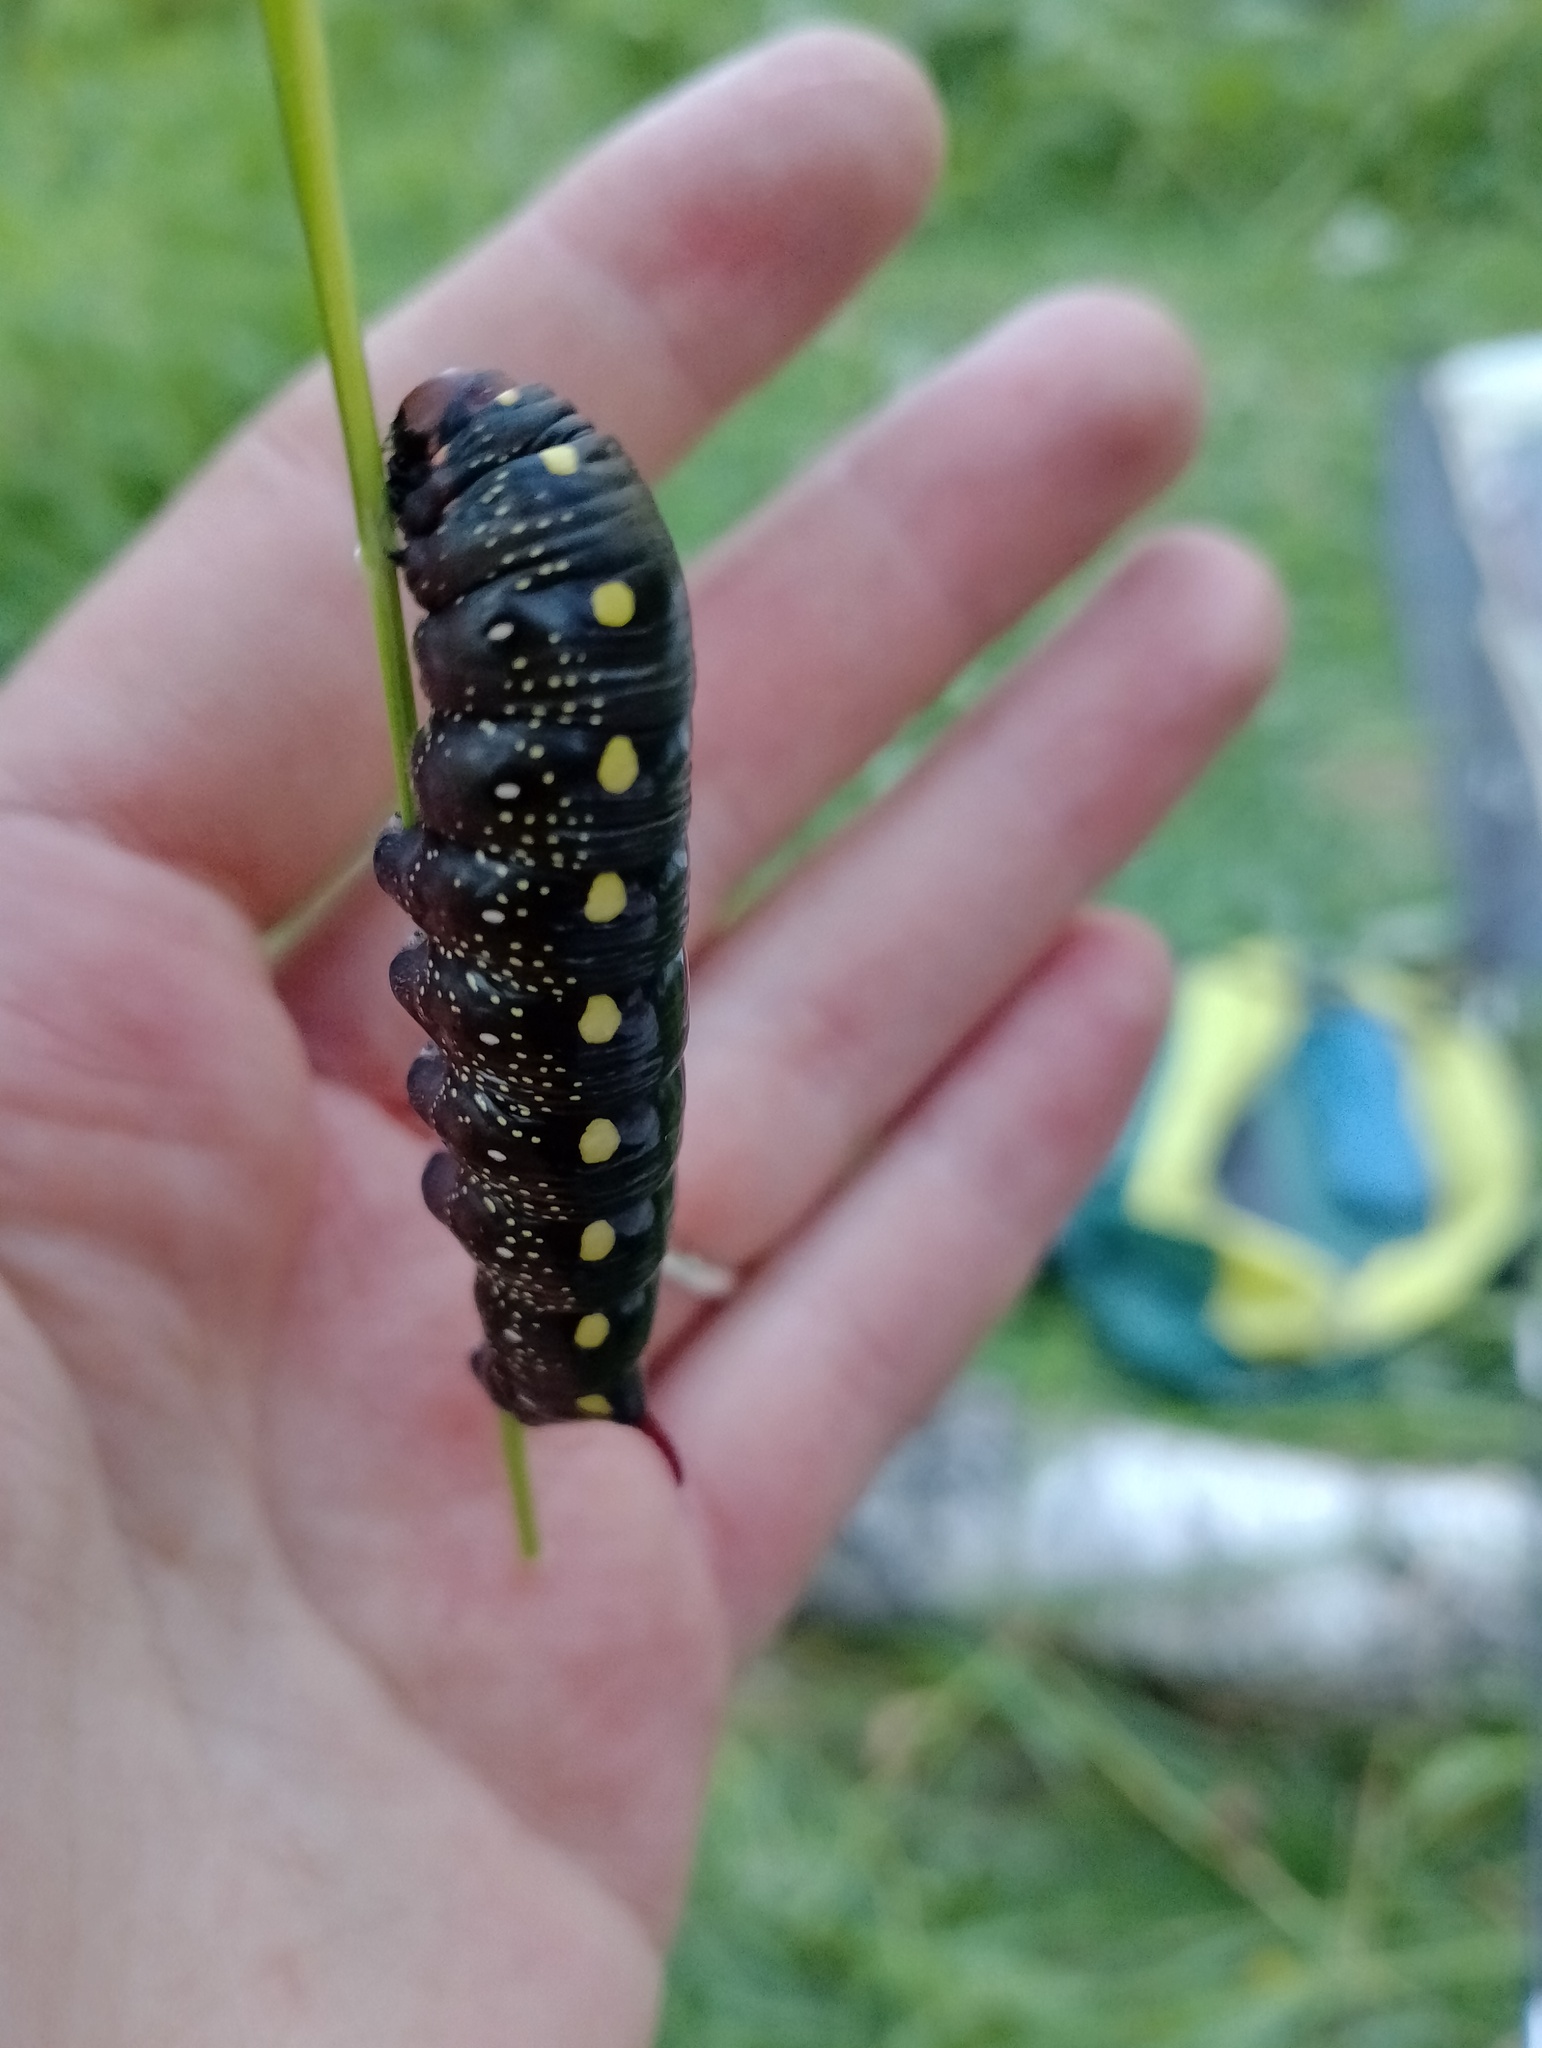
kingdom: Animalia
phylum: Arthropoda
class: Insecta
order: Lepidoptera
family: Sphingidae
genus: Hyles
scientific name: Hyles gallii
